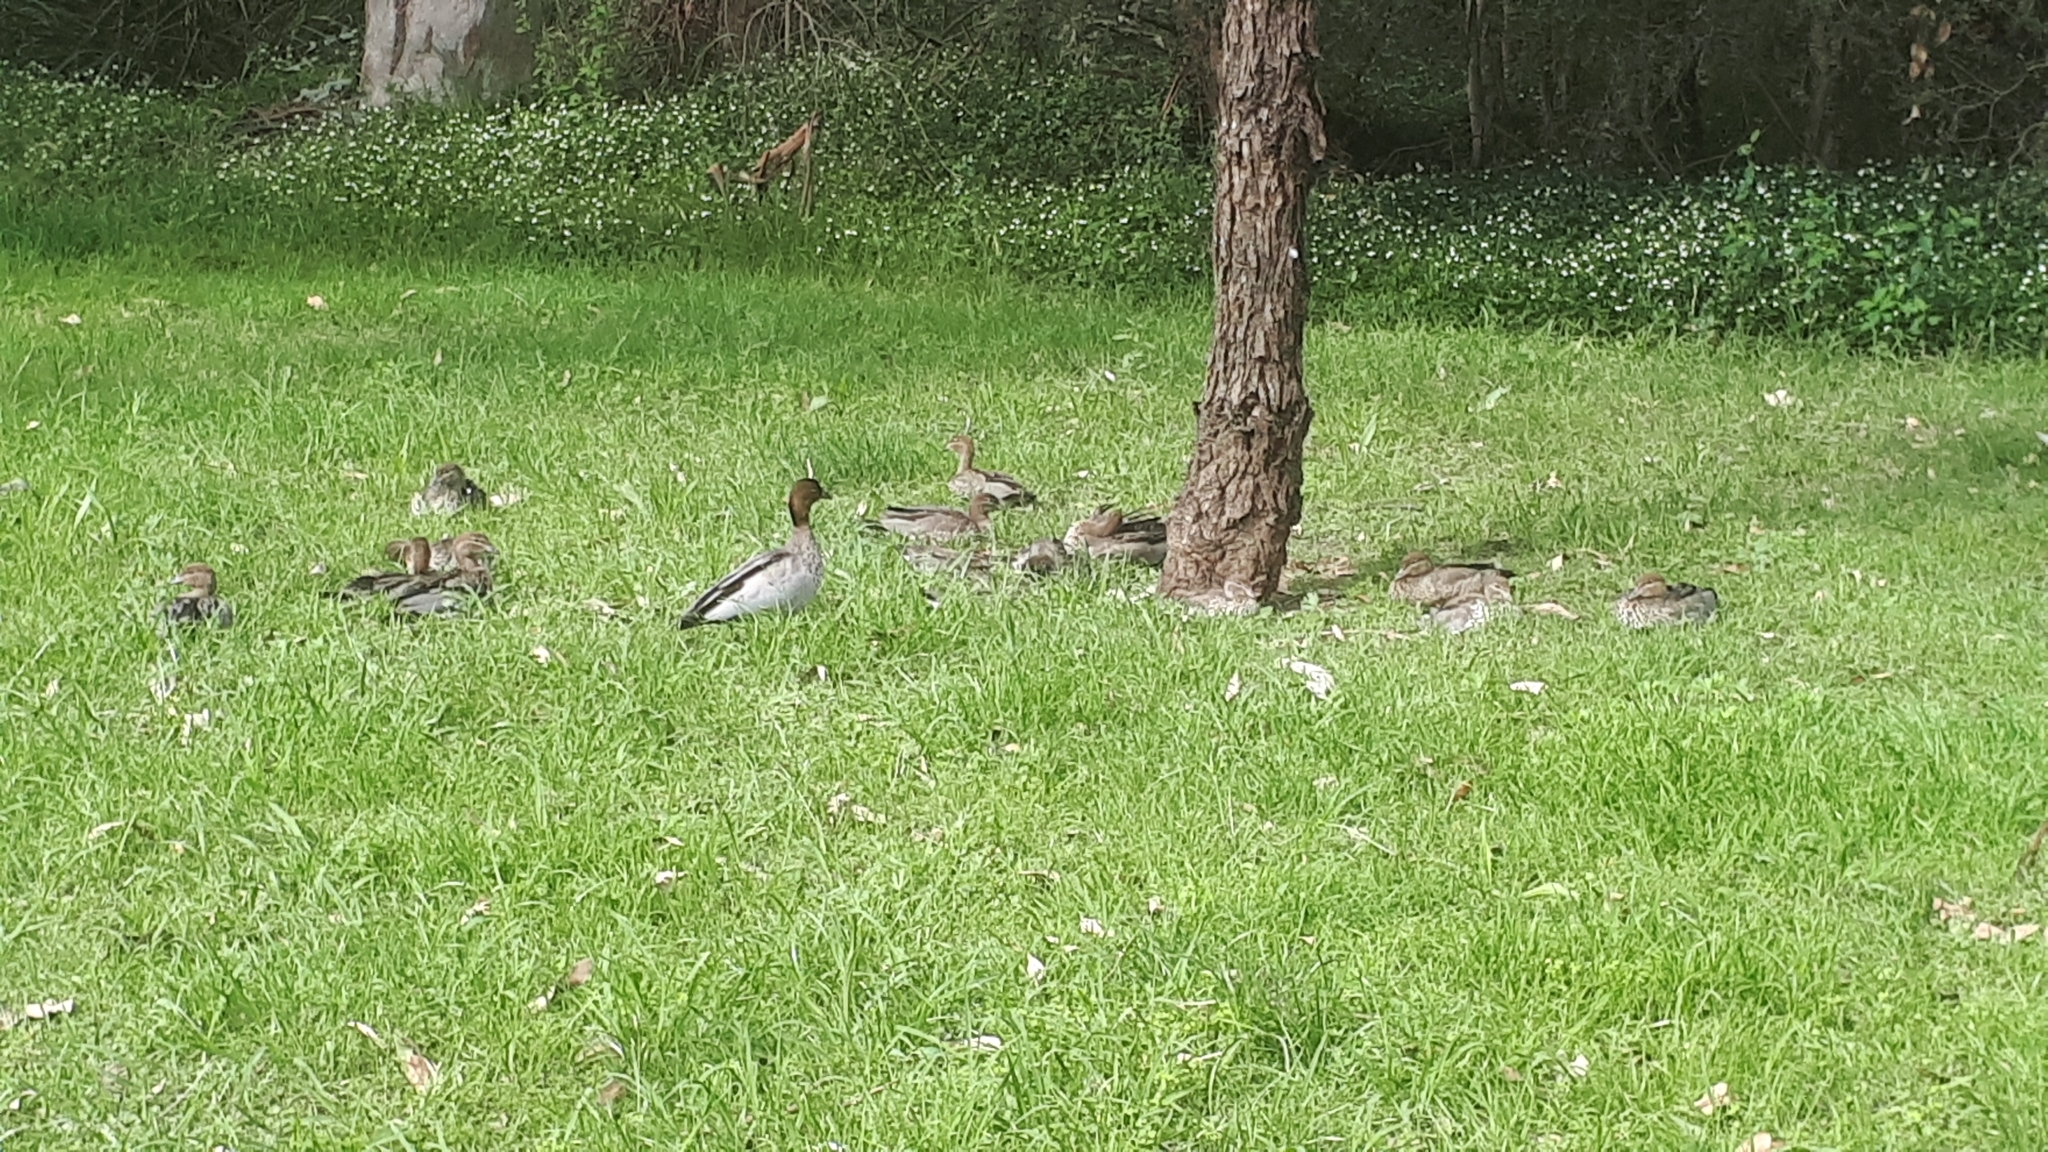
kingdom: Animalia
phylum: Chordata
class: Aves
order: Anseriformes
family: Anatidae
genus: Chenonetta
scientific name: Chenonetta jubata
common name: Maned duck
